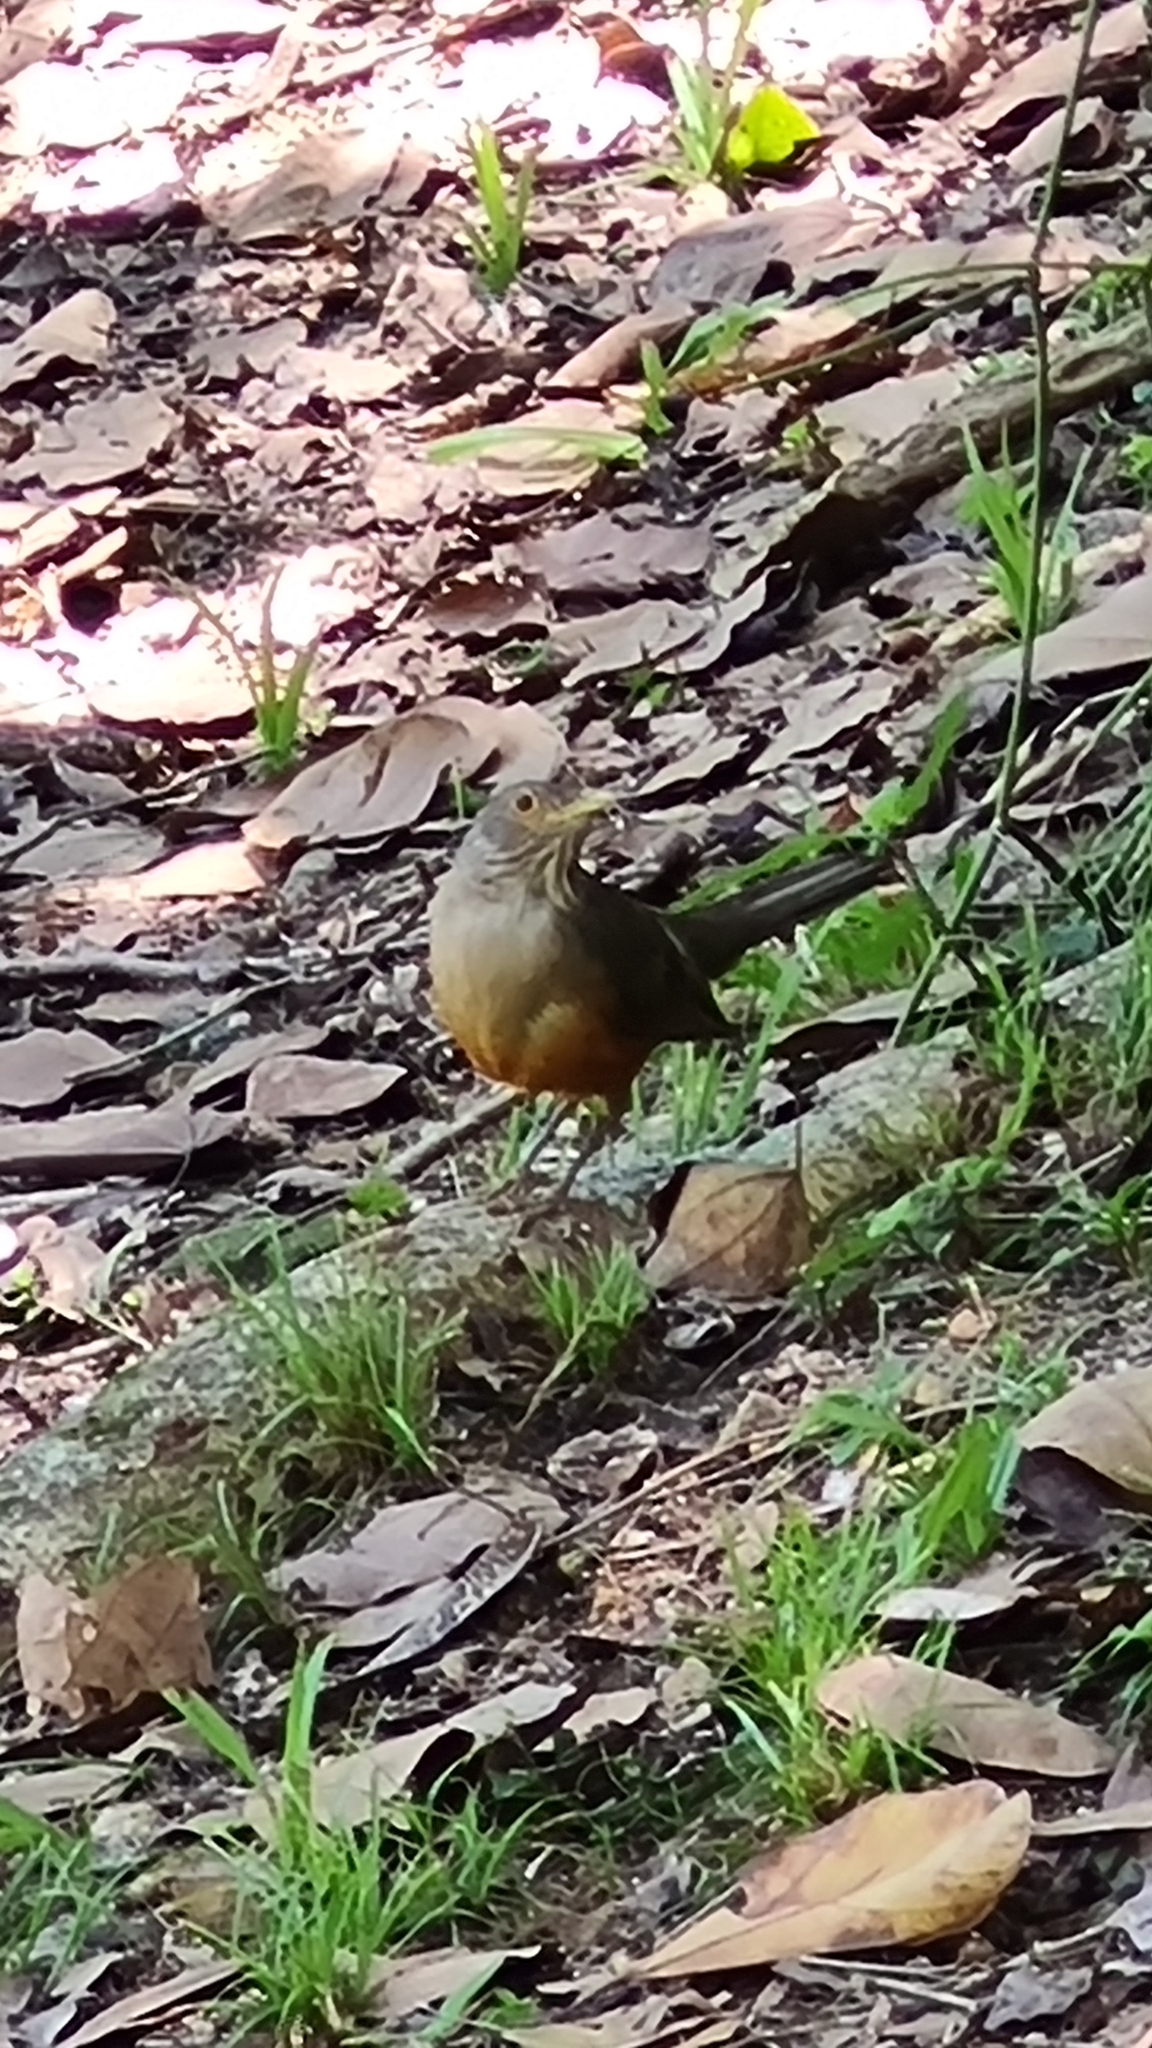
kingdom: Animalia
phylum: Chordata
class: Aves
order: Passeriformes
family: Turdidae
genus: Turdus
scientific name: Turdus rufiventris
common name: Rufous-bellied thrush
